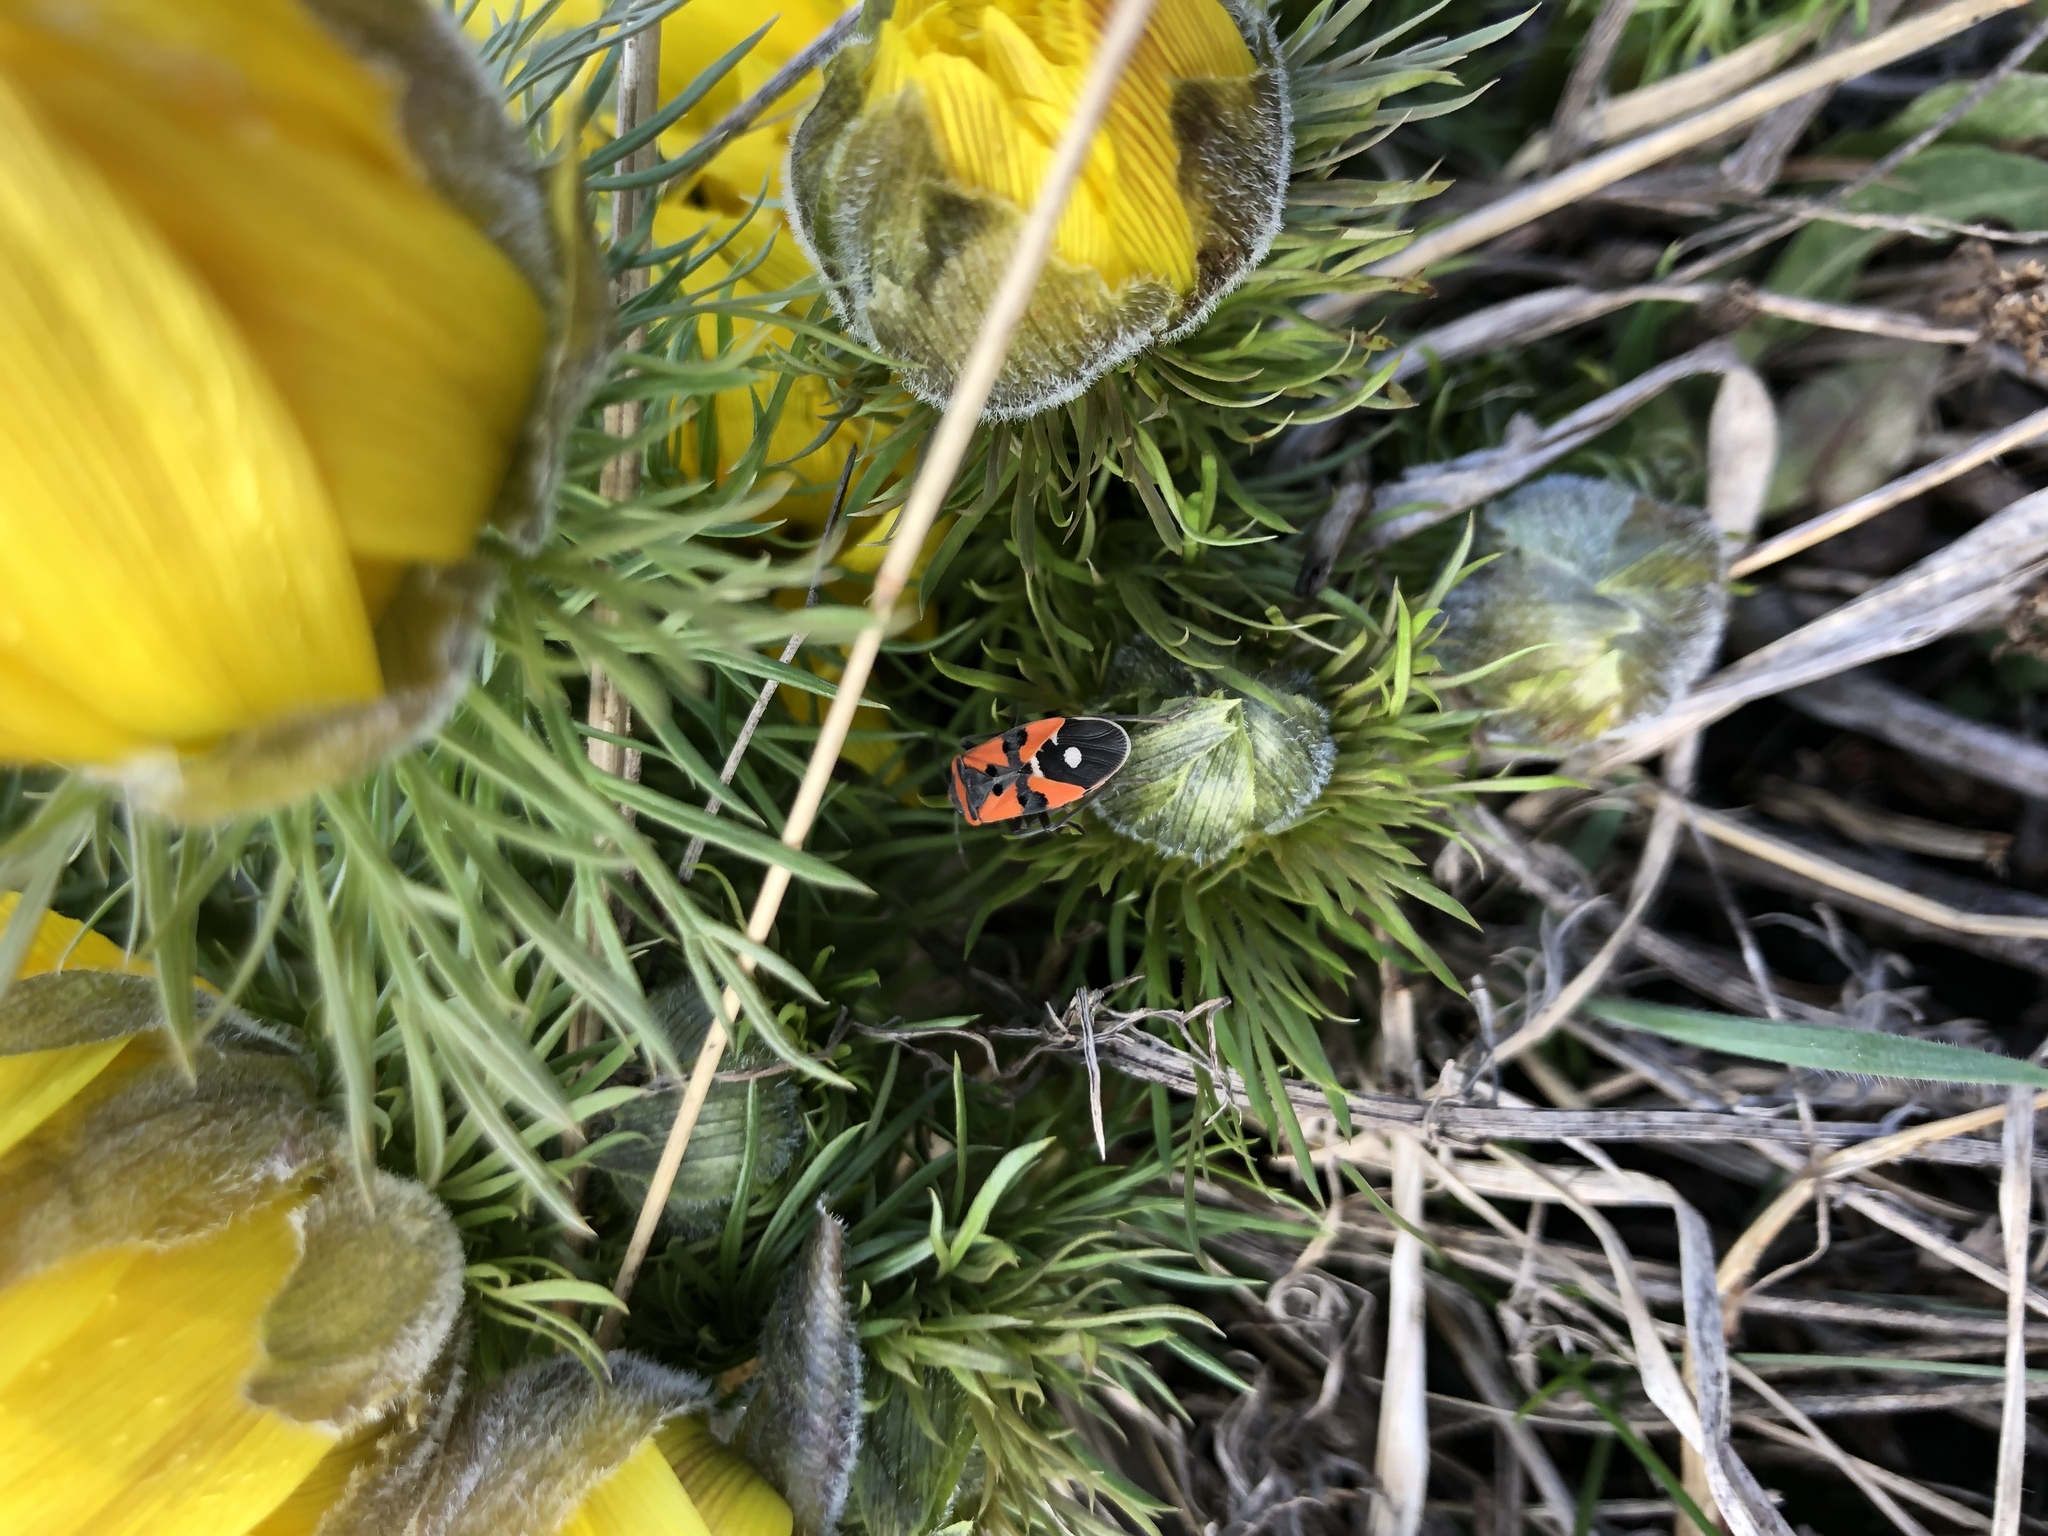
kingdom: Animalia
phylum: Arthropoda
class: Insecta
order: Hemiptera
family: Lygaeidae
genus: Lygaeus
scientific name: Lygaeus equestris
